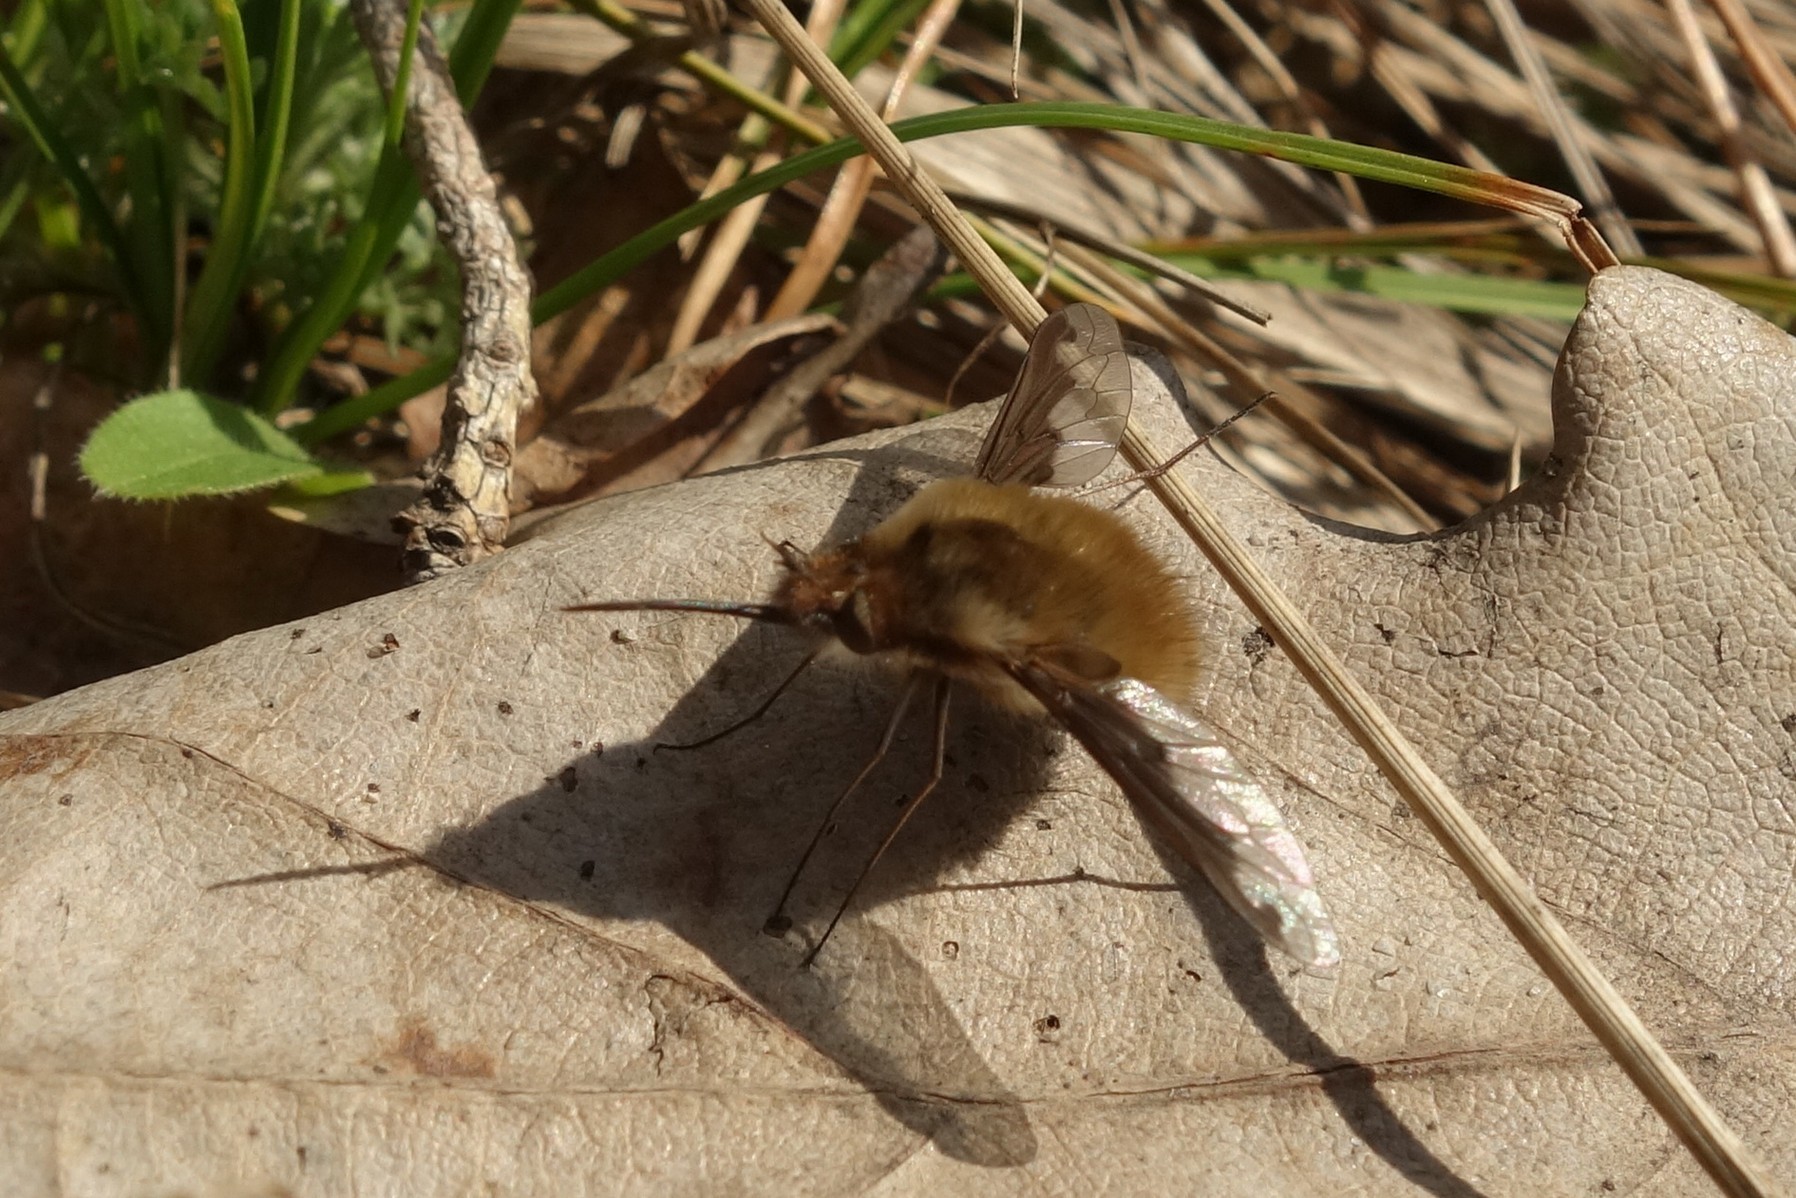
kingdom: Animalia
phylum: Arthropoda
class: Insecta
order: Diptera
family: Bombyliidae
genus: Bombylius
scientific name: Bombylius major
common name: Bee fly
